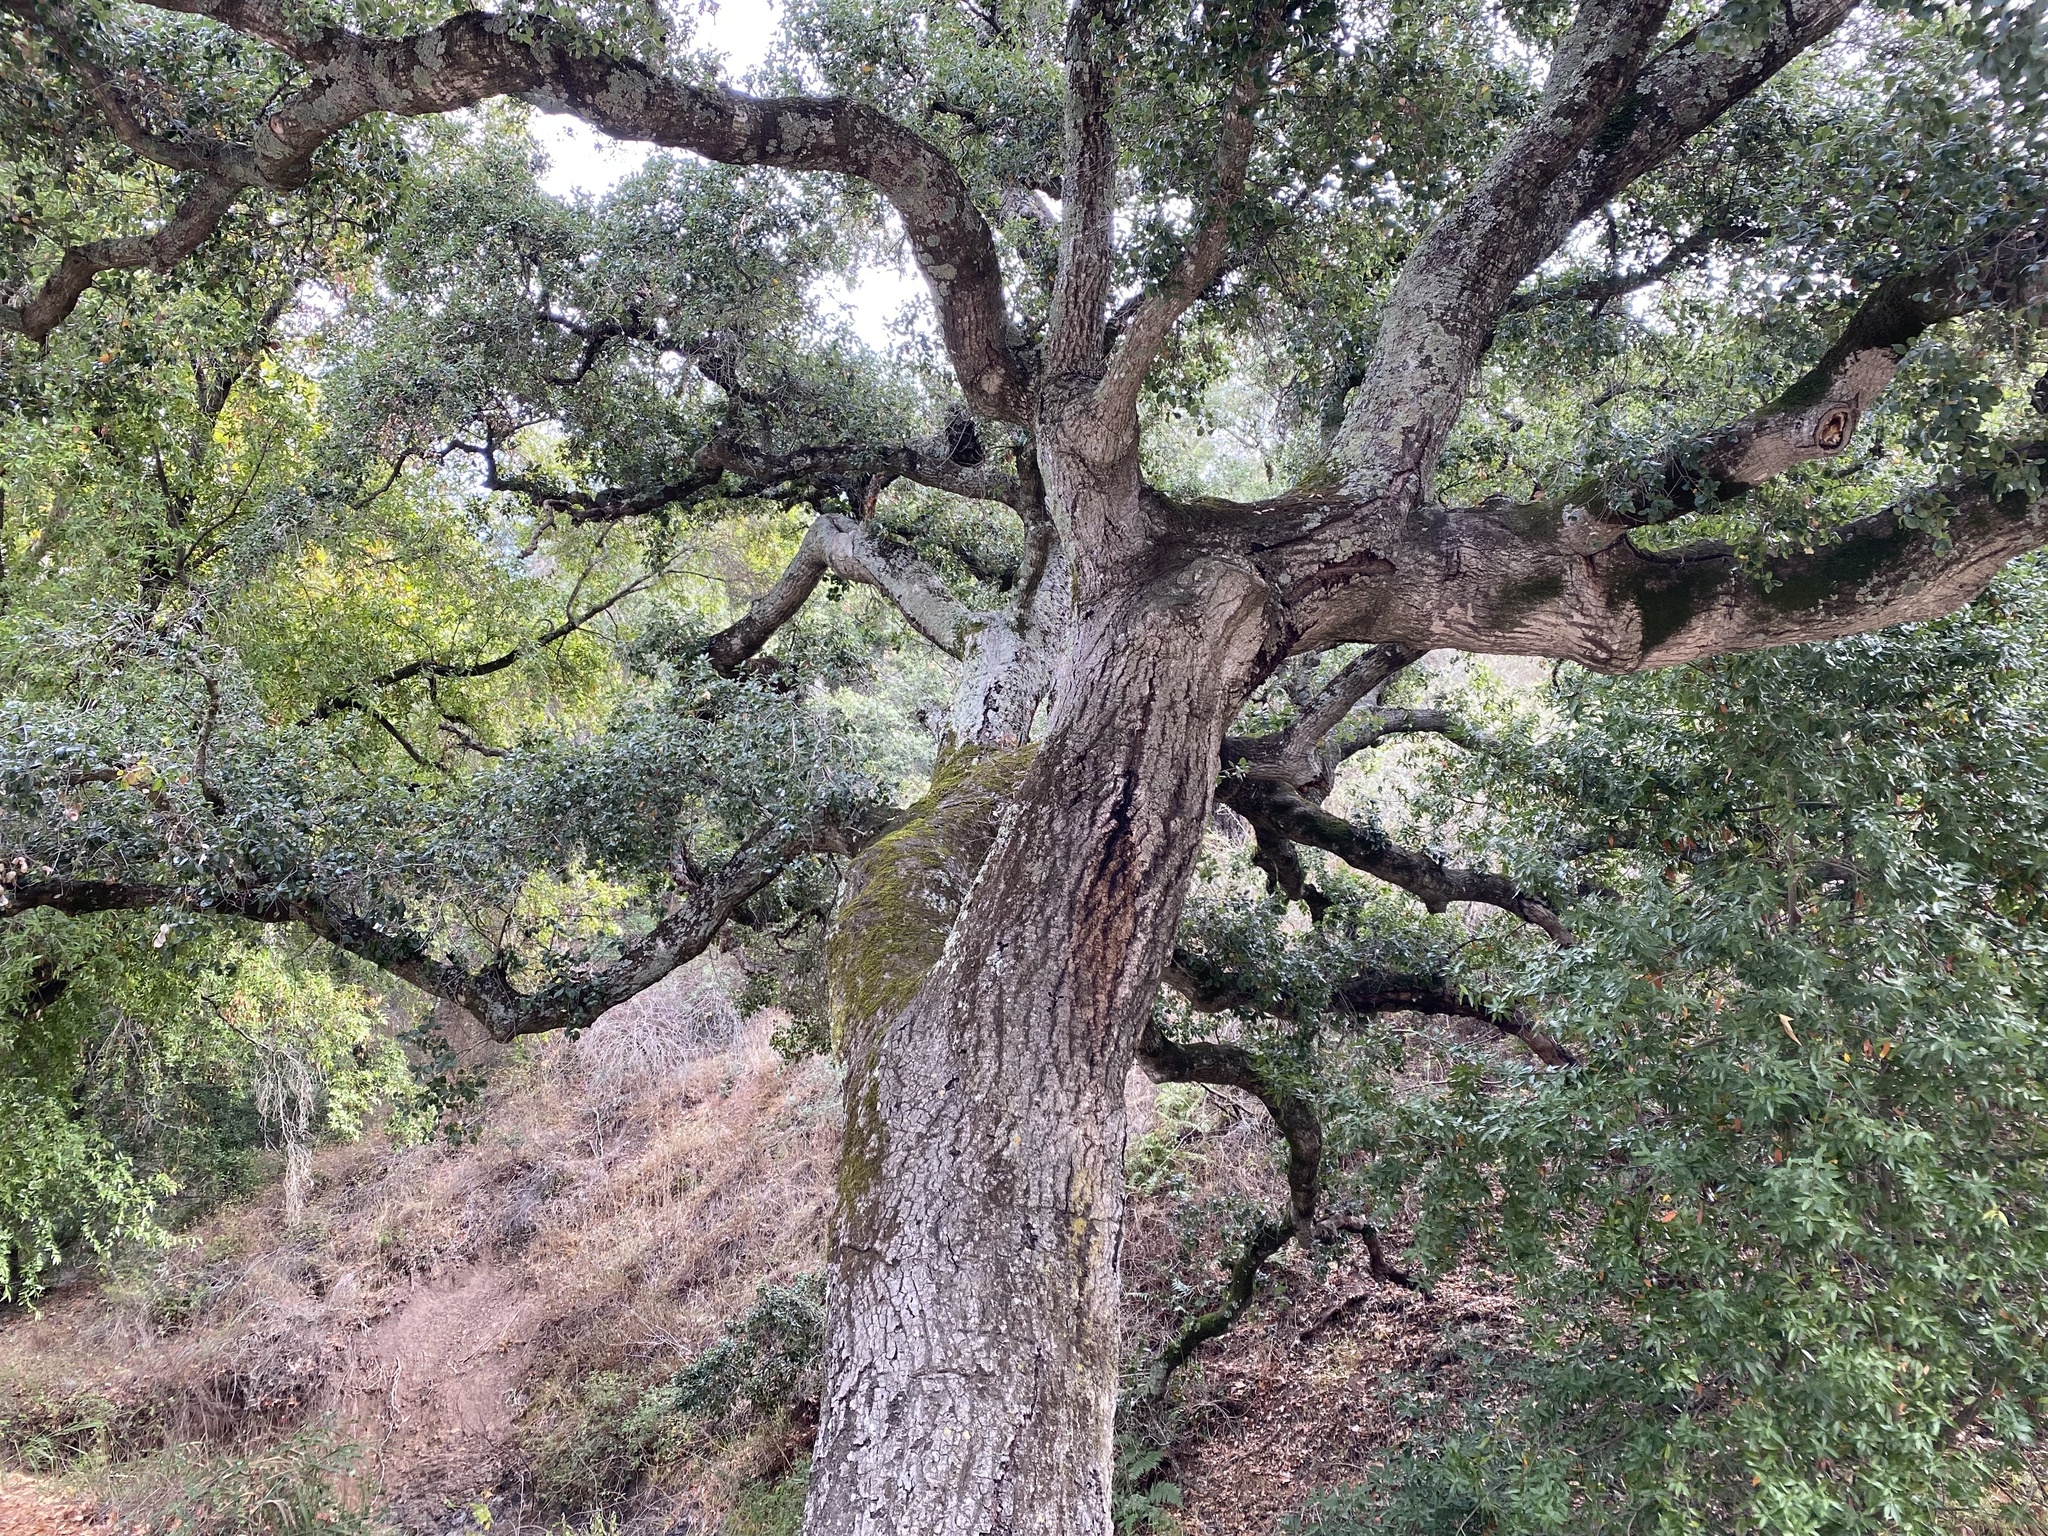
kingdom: Plantae
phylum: Tracheophyta
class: Magnoliopsida
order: Fagales
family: Fagaceae
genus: Quercus
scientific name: Quercus agrifolia
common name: California live oak
